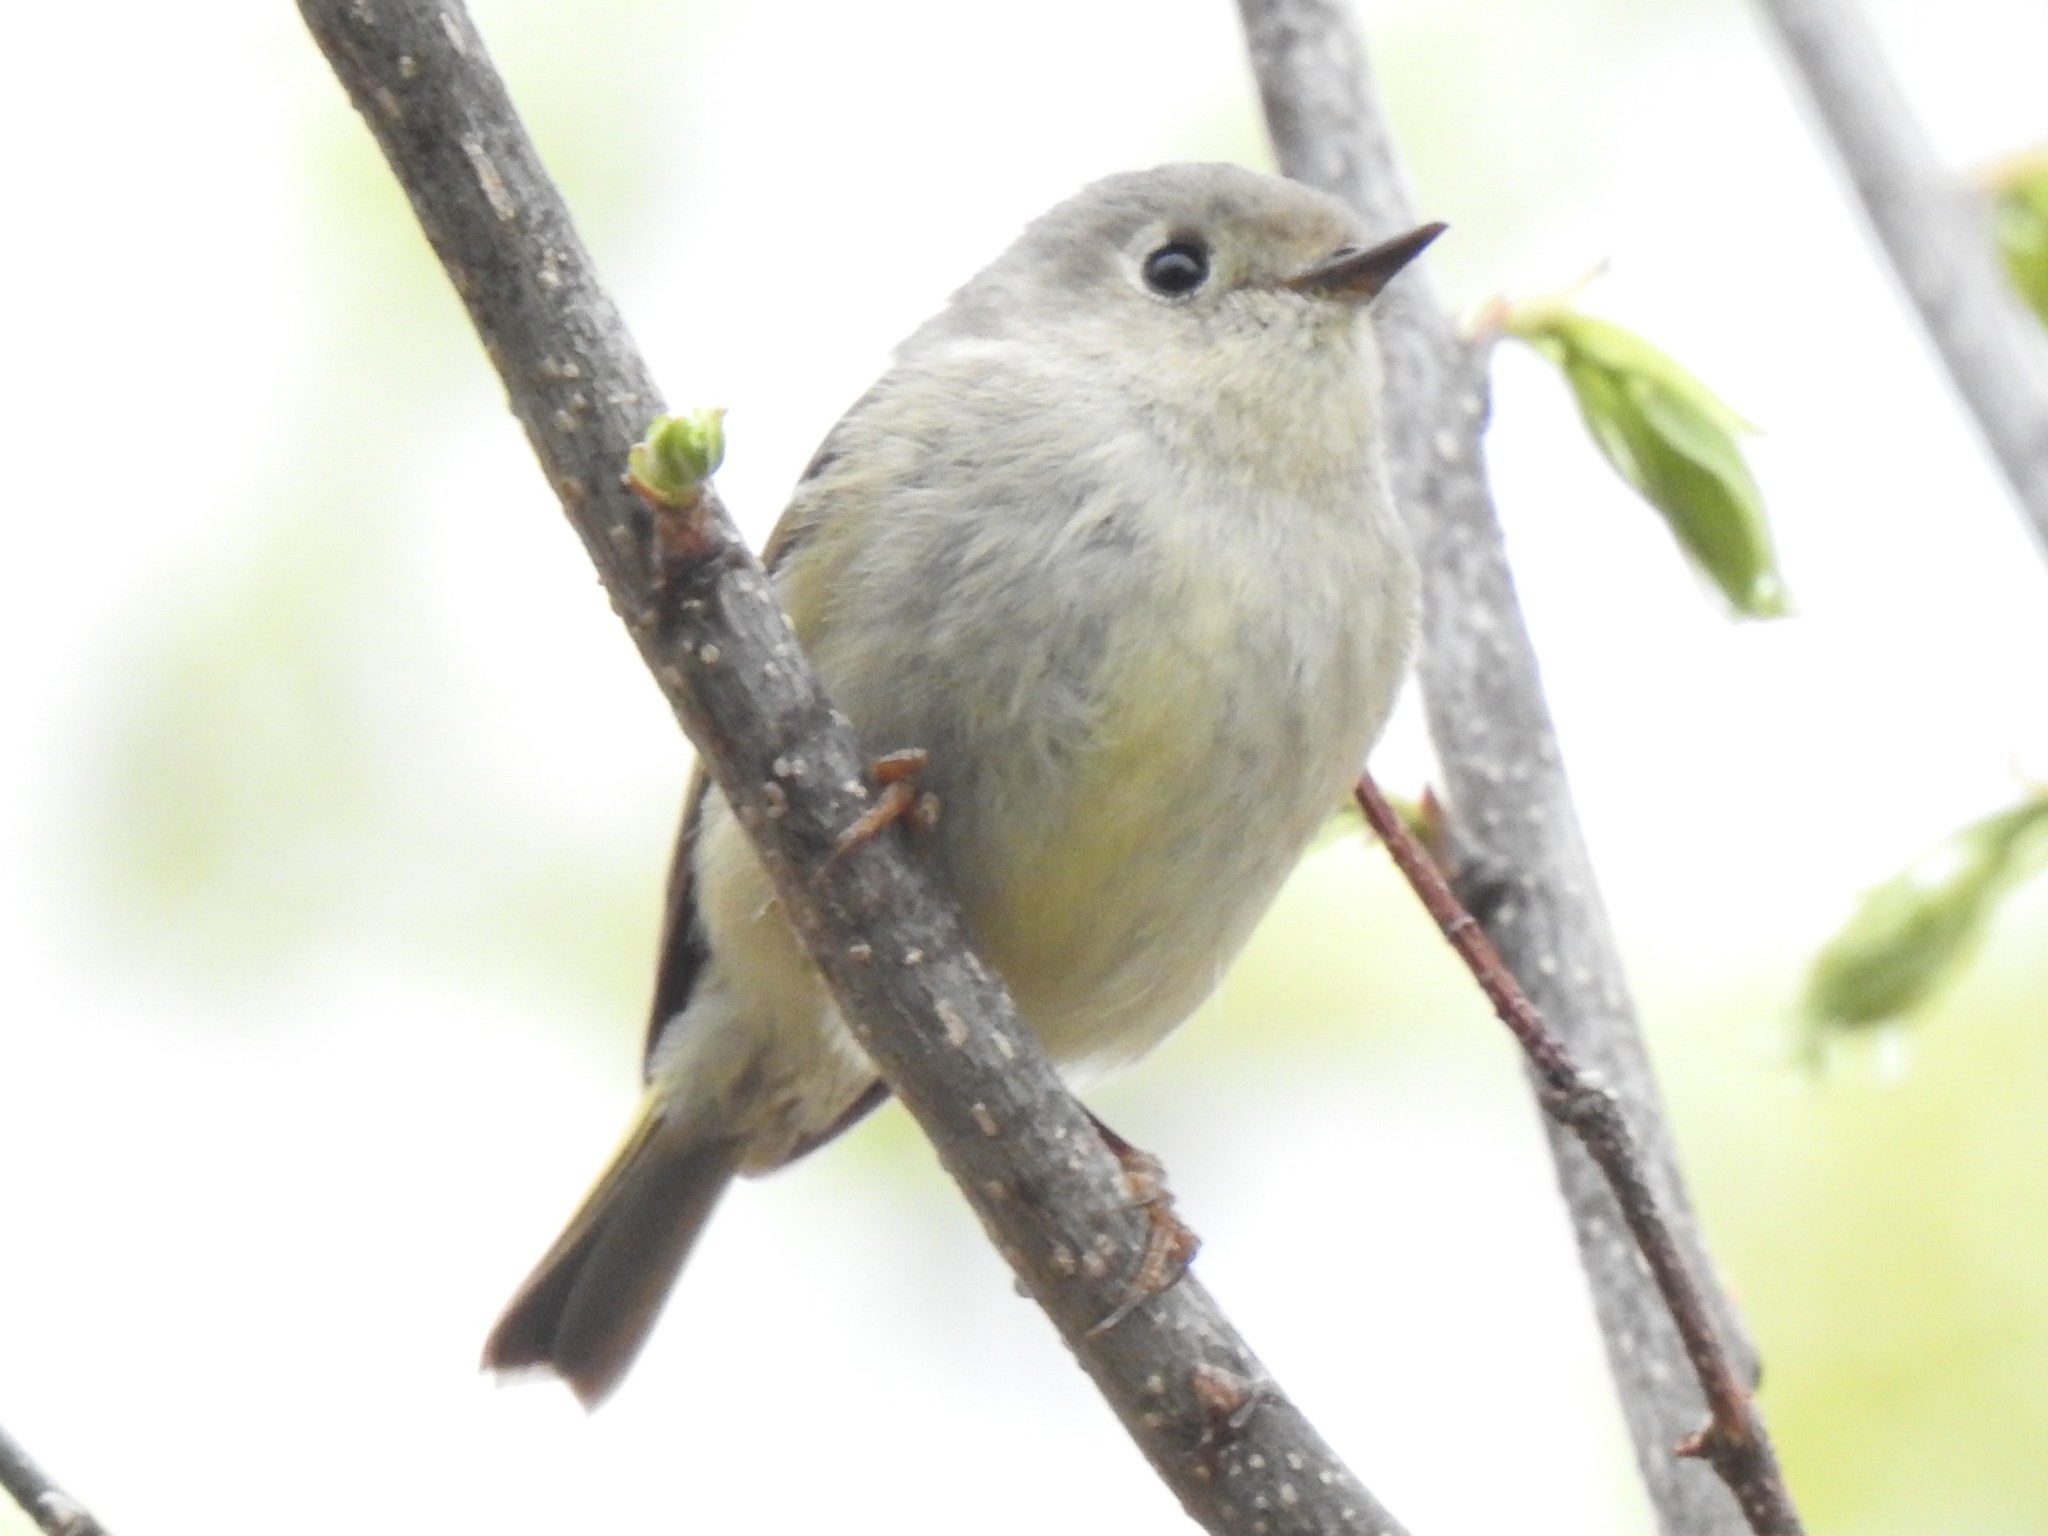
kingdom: Animalia
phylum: Chordata
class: Aves
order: Passeriformes
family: Regulidae
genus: Regulus
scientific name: Regulus calendula
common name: Ruby-crowned kinglet
